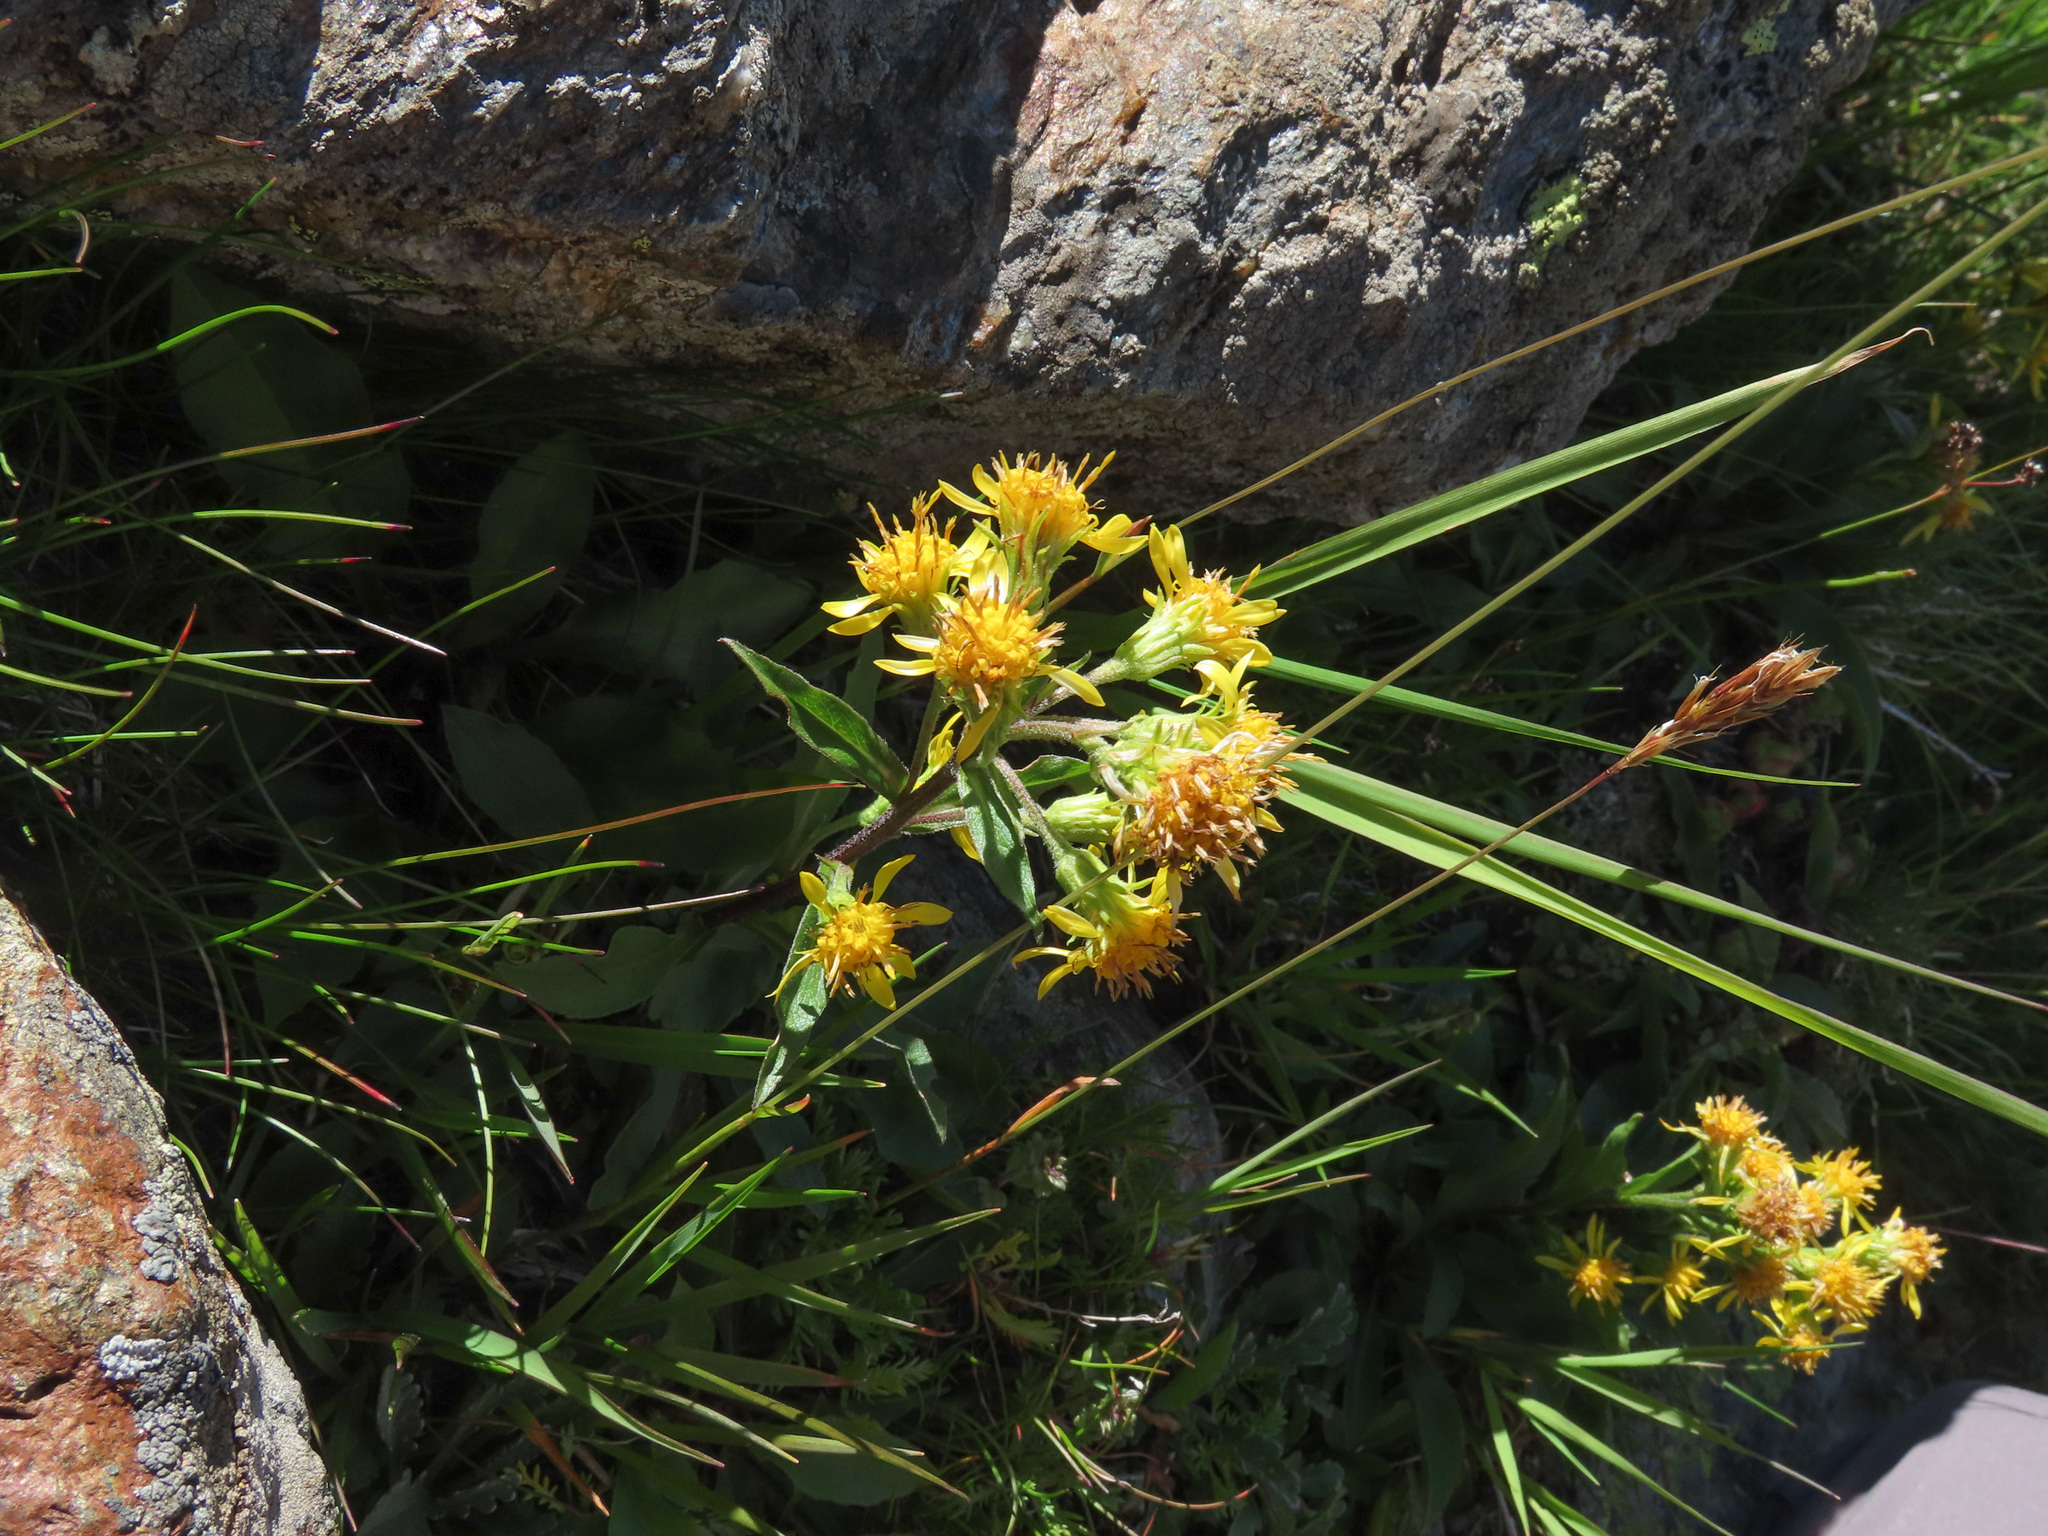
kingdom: Plantae
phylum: Tracheophyta
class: Magnoliopsida
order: Asterales
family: Asteraceae
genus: Solidago
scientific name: Solidago virgaurea
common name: Goldenrod
